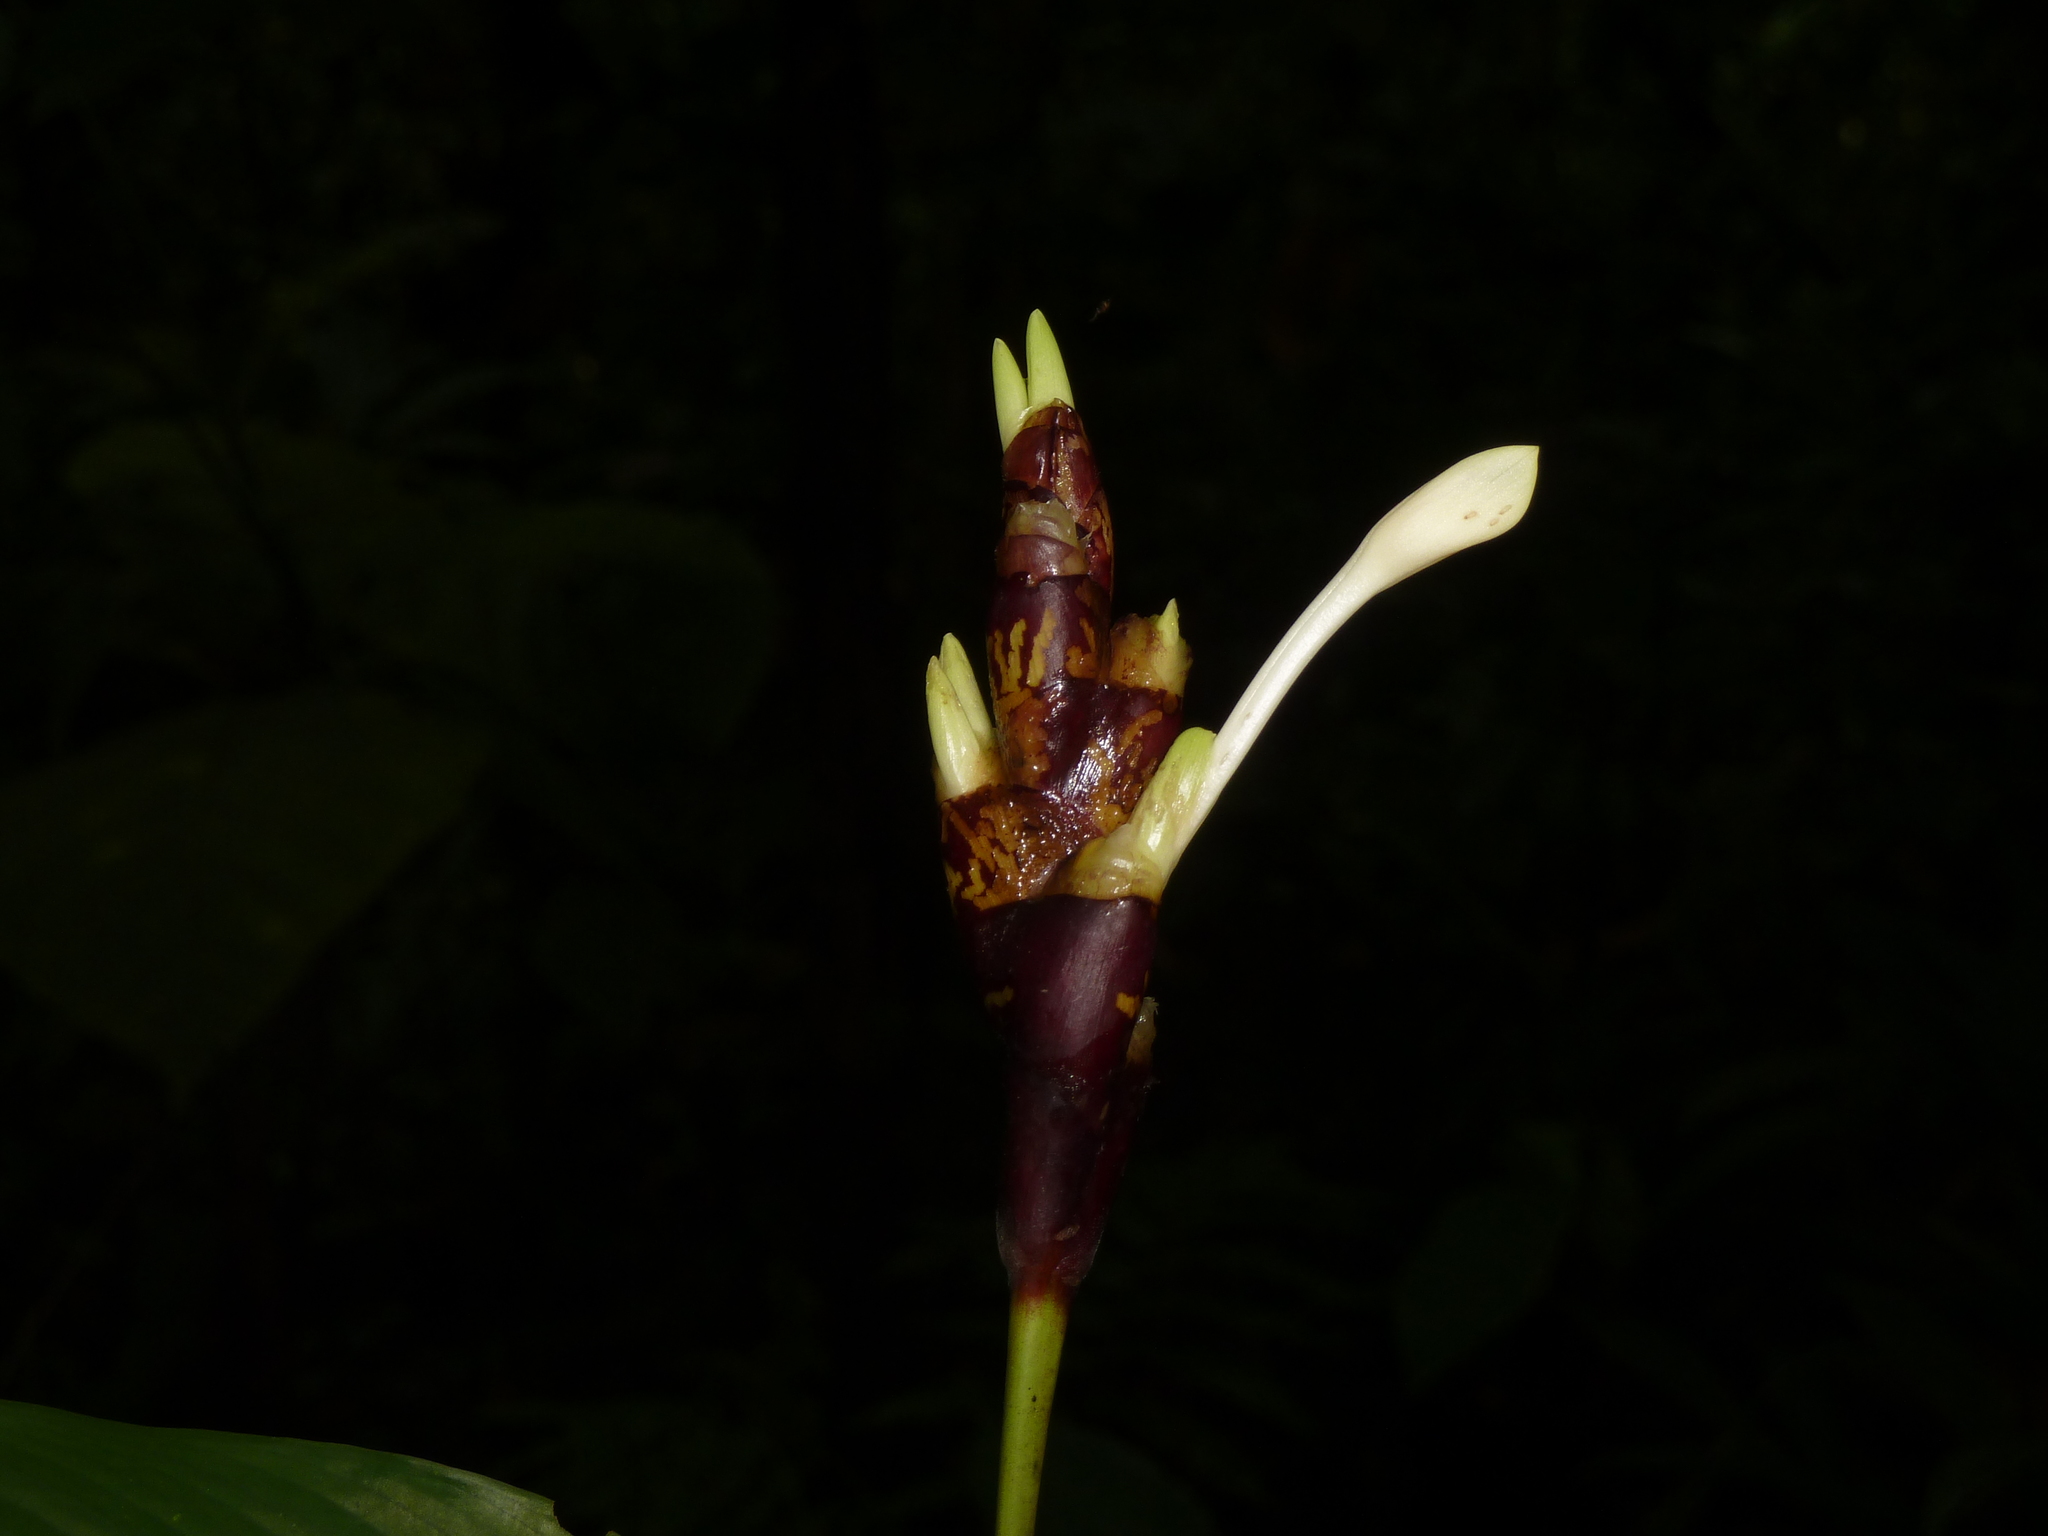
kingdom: Plantae
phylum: Tracheophyta
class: Liliopsida
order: Zingiberales
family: Marantaceae
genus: Goeppertia
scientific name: Goeppertia donnell-smithii
